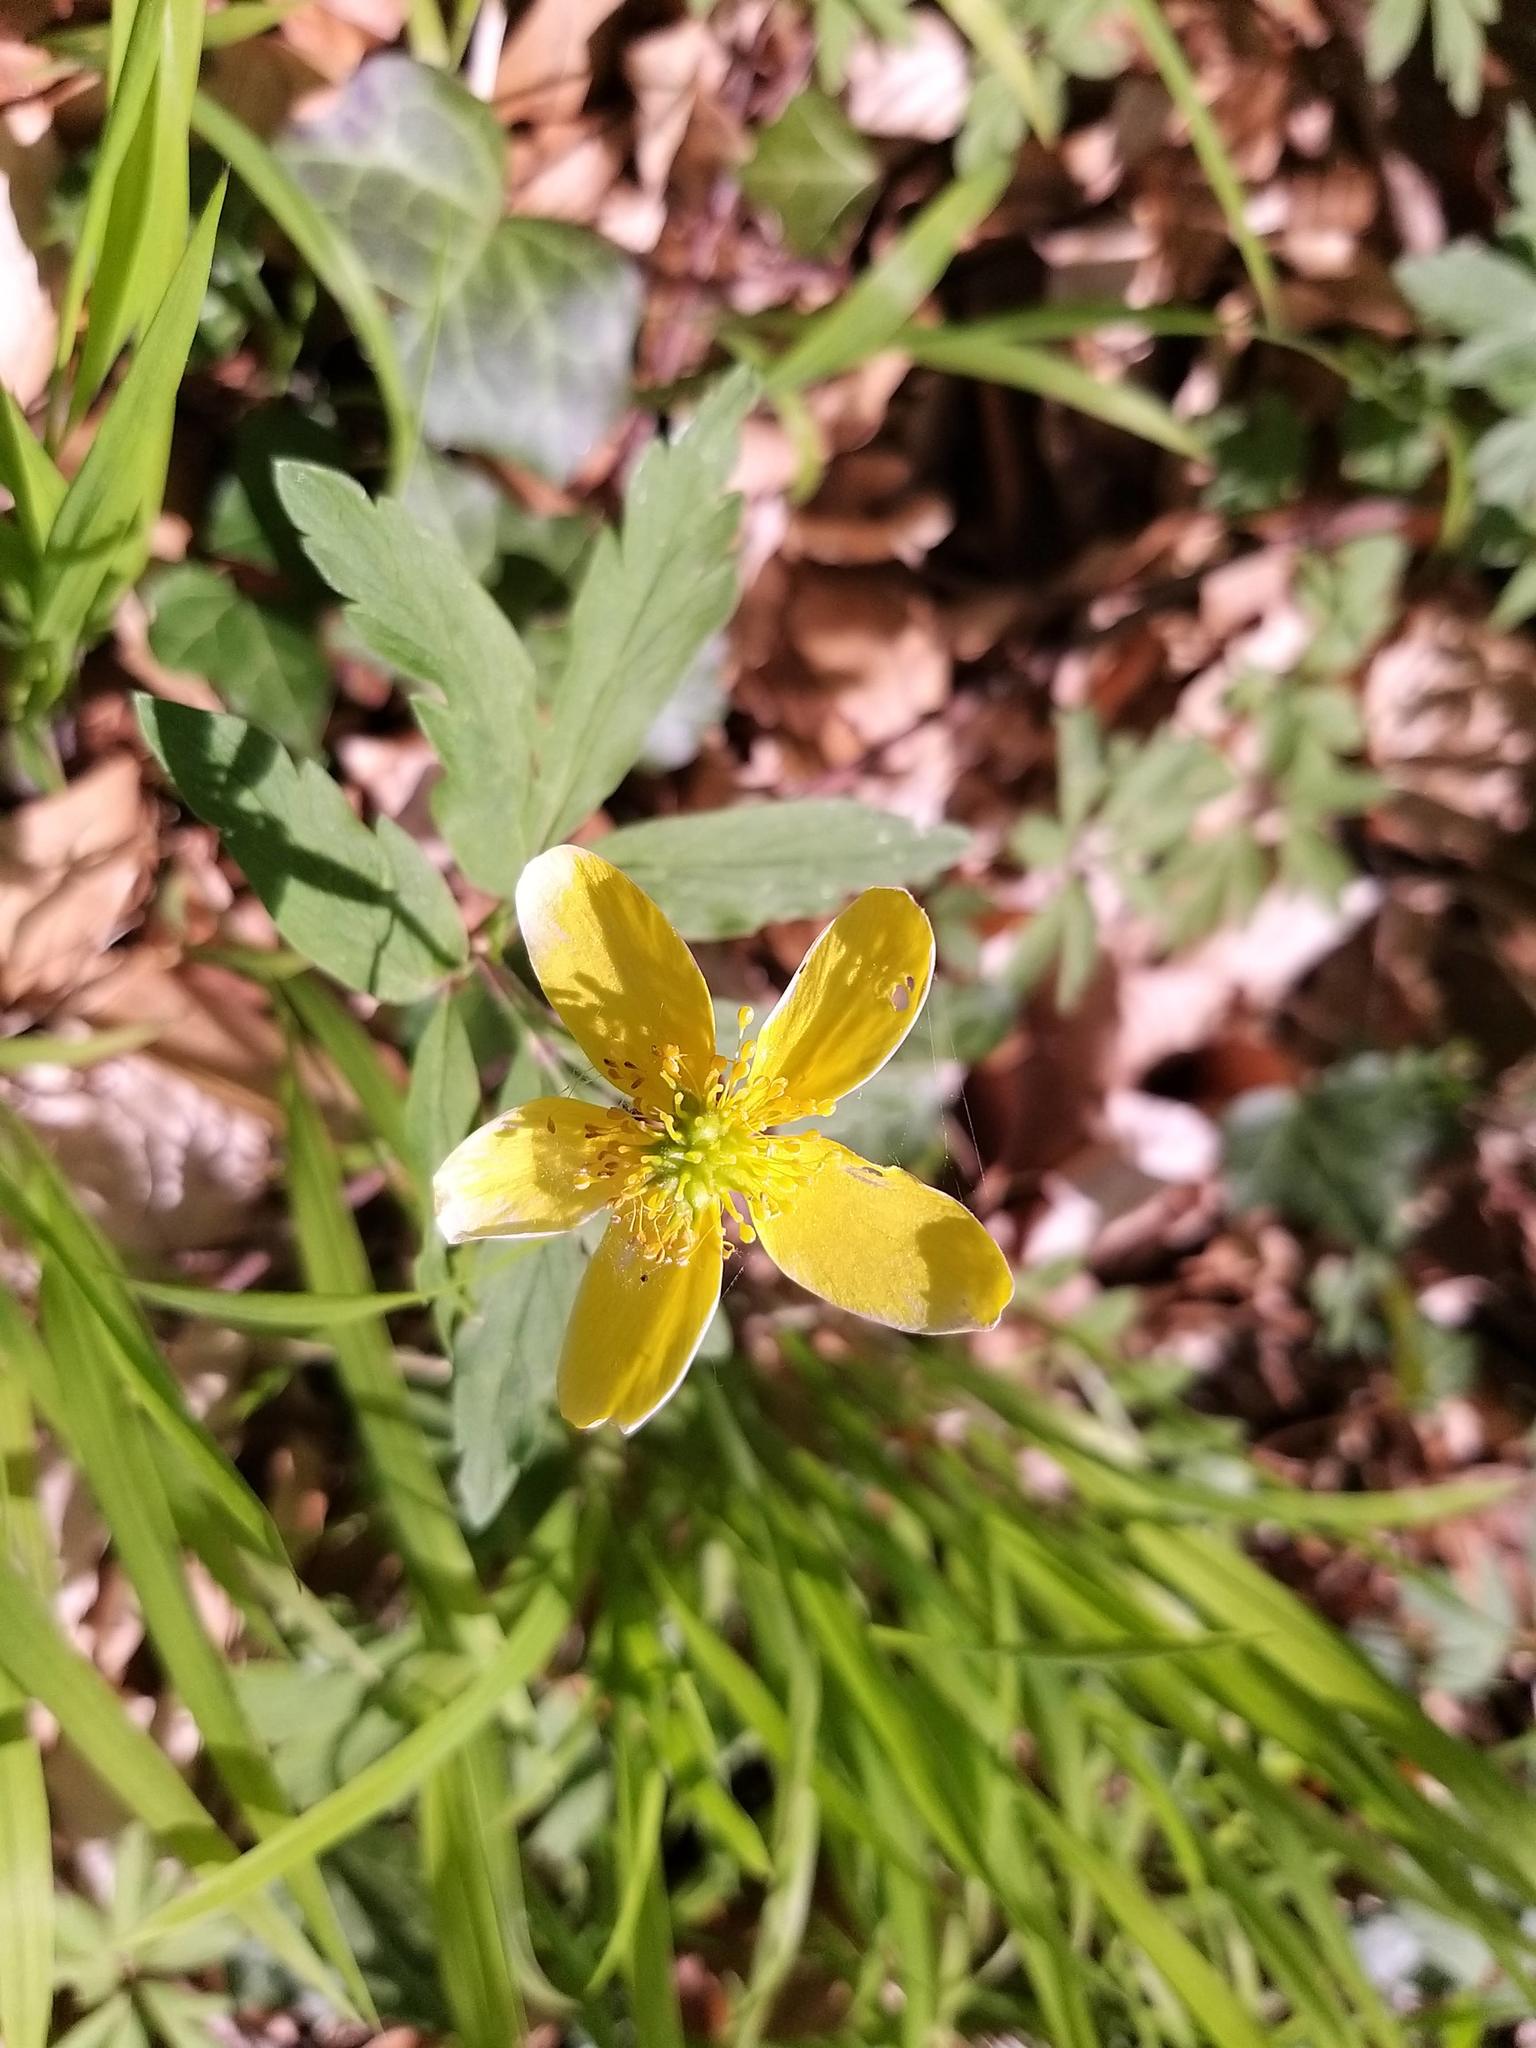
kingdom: Plantae
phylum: Tracheophyta
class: Magnoliopsida
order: Ranunculales
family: Ranunculaceae
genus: Anemone
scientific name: Anemone ranunculoides
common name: Yellow anemone
